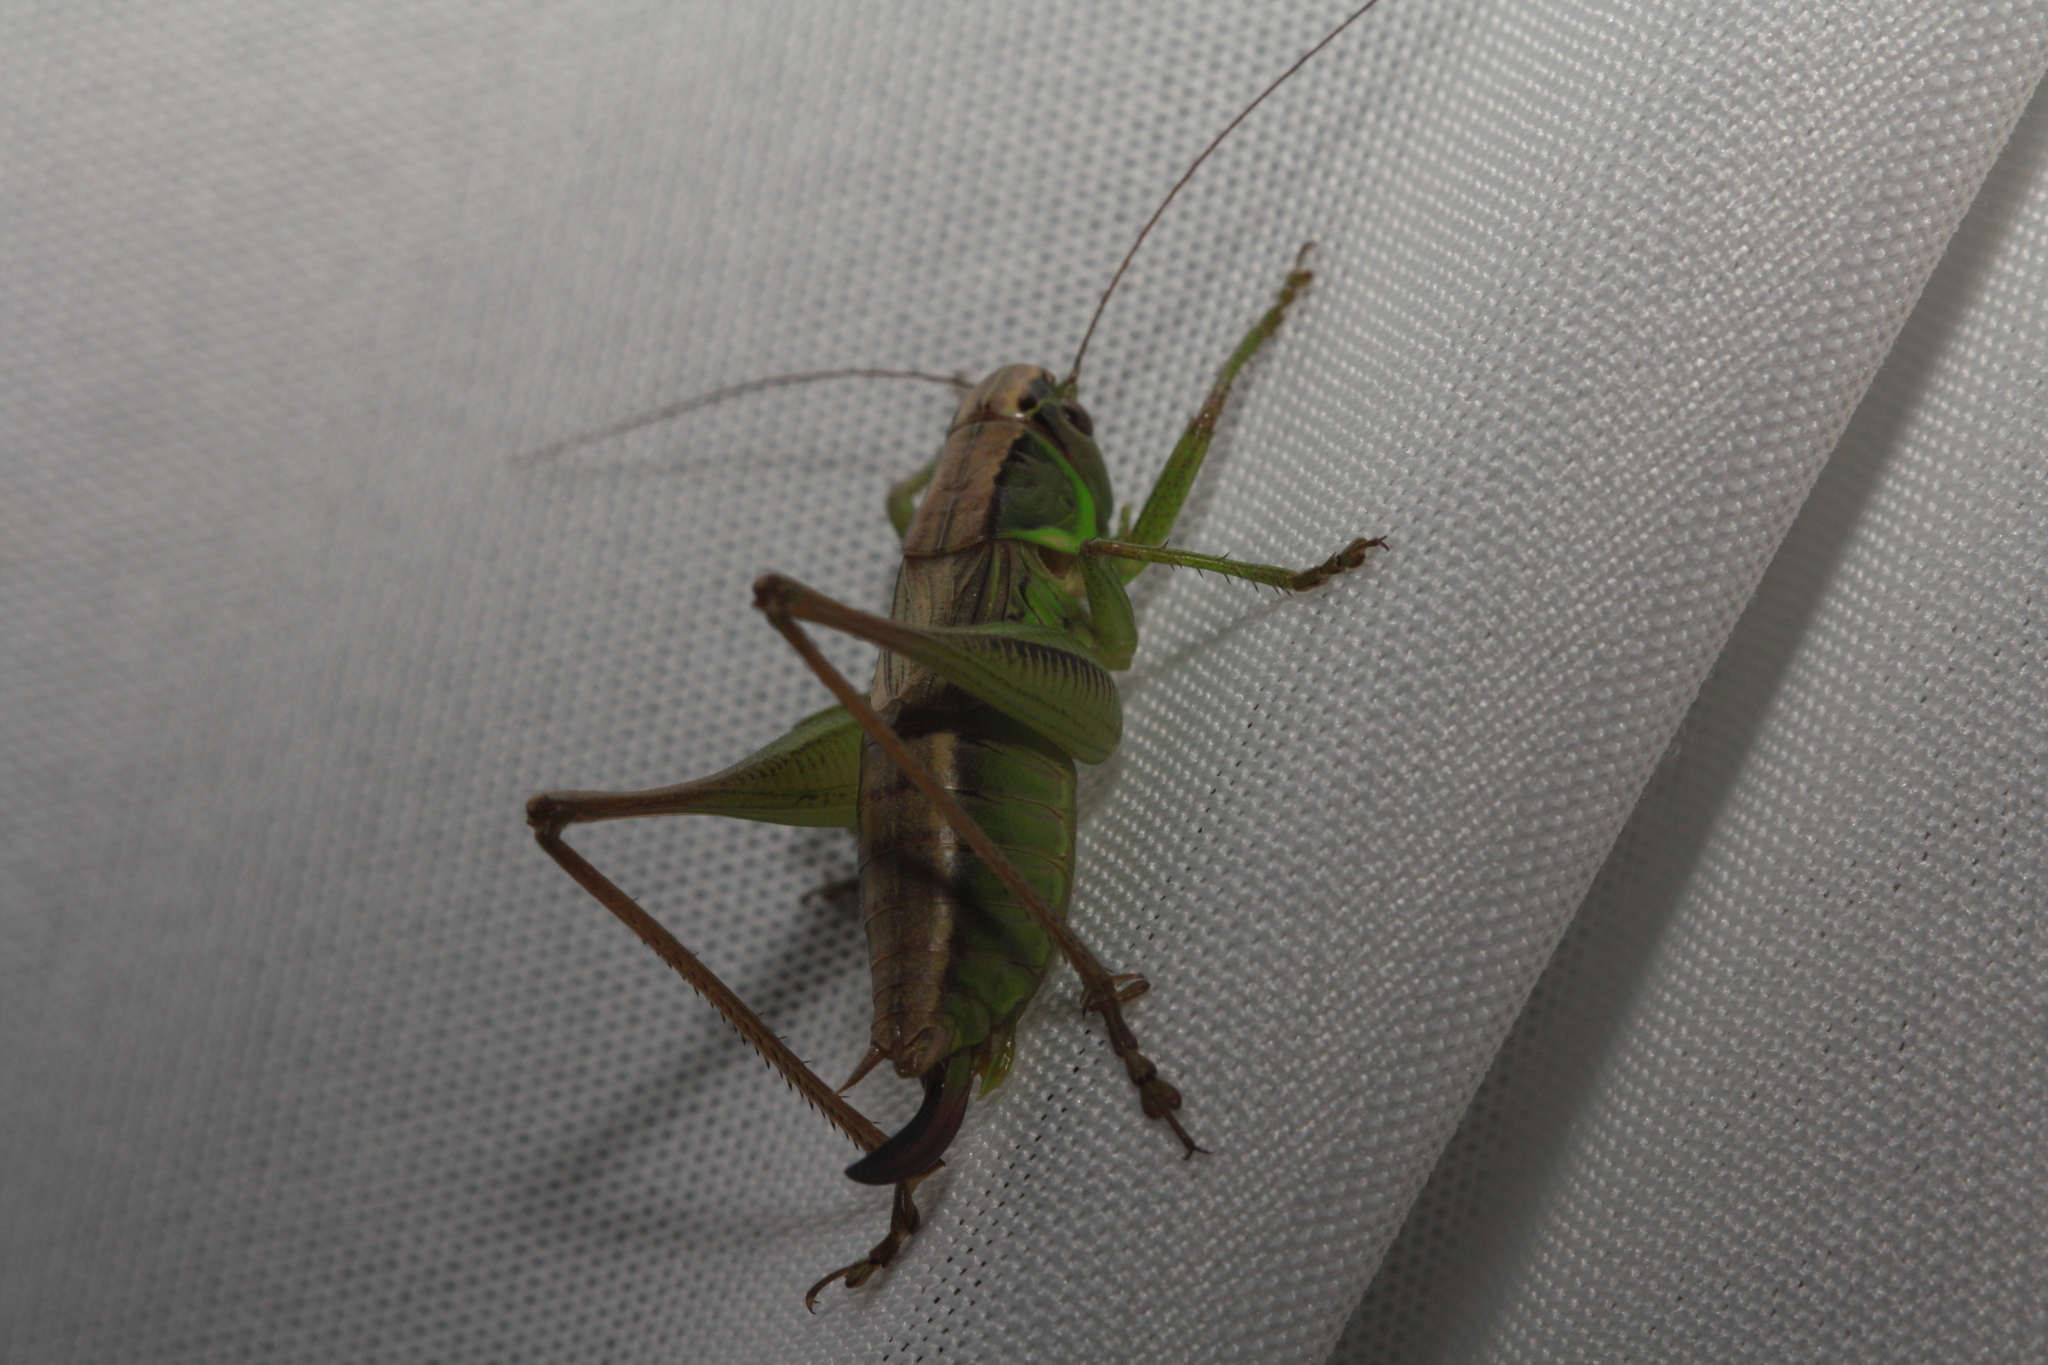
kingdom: Animalia
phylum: Arthropoda
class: Insecta
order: Orthoptera
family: Tettigoniidae
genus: Roeseliana
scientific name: Roeseliana roeselii
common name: Roesel's bush cricket
